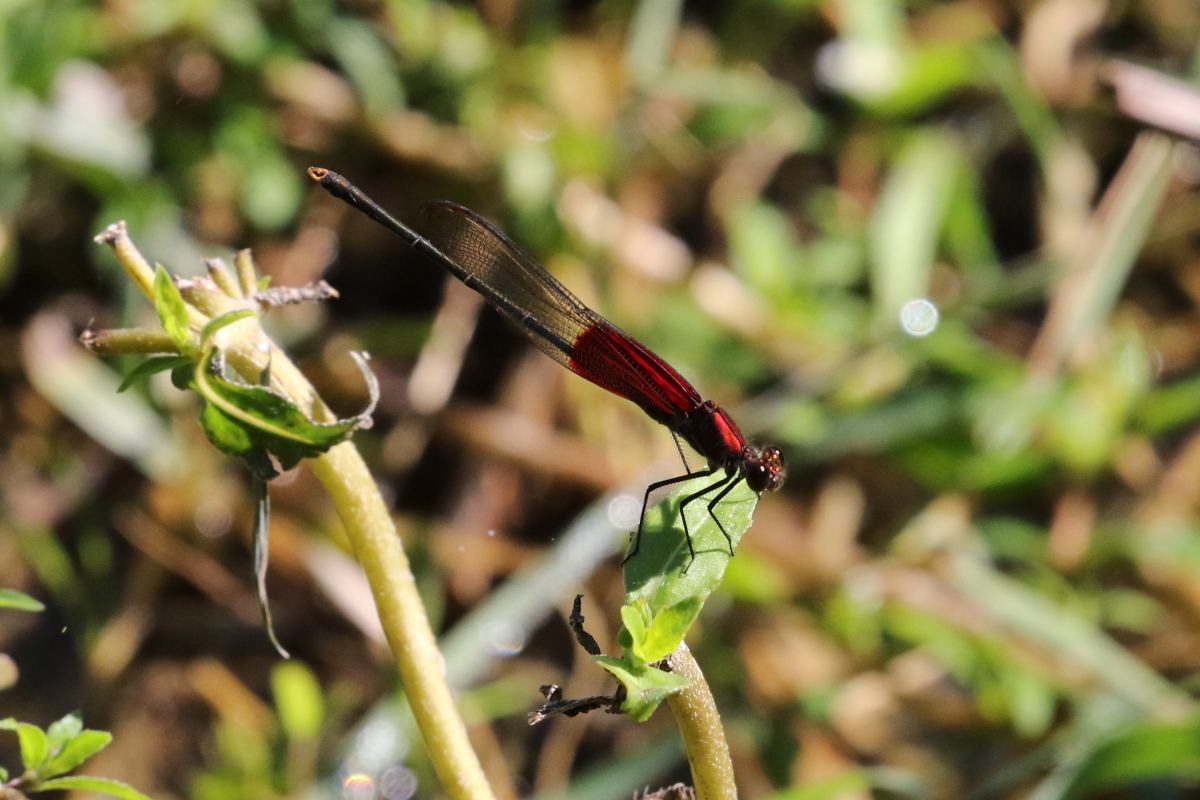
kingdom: Animalia
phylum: Arthropoda
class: Insecta
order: Odonata
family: Calopterygidae
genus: Hetaerina
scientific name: Hetaerina americana
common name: American rubyspot
